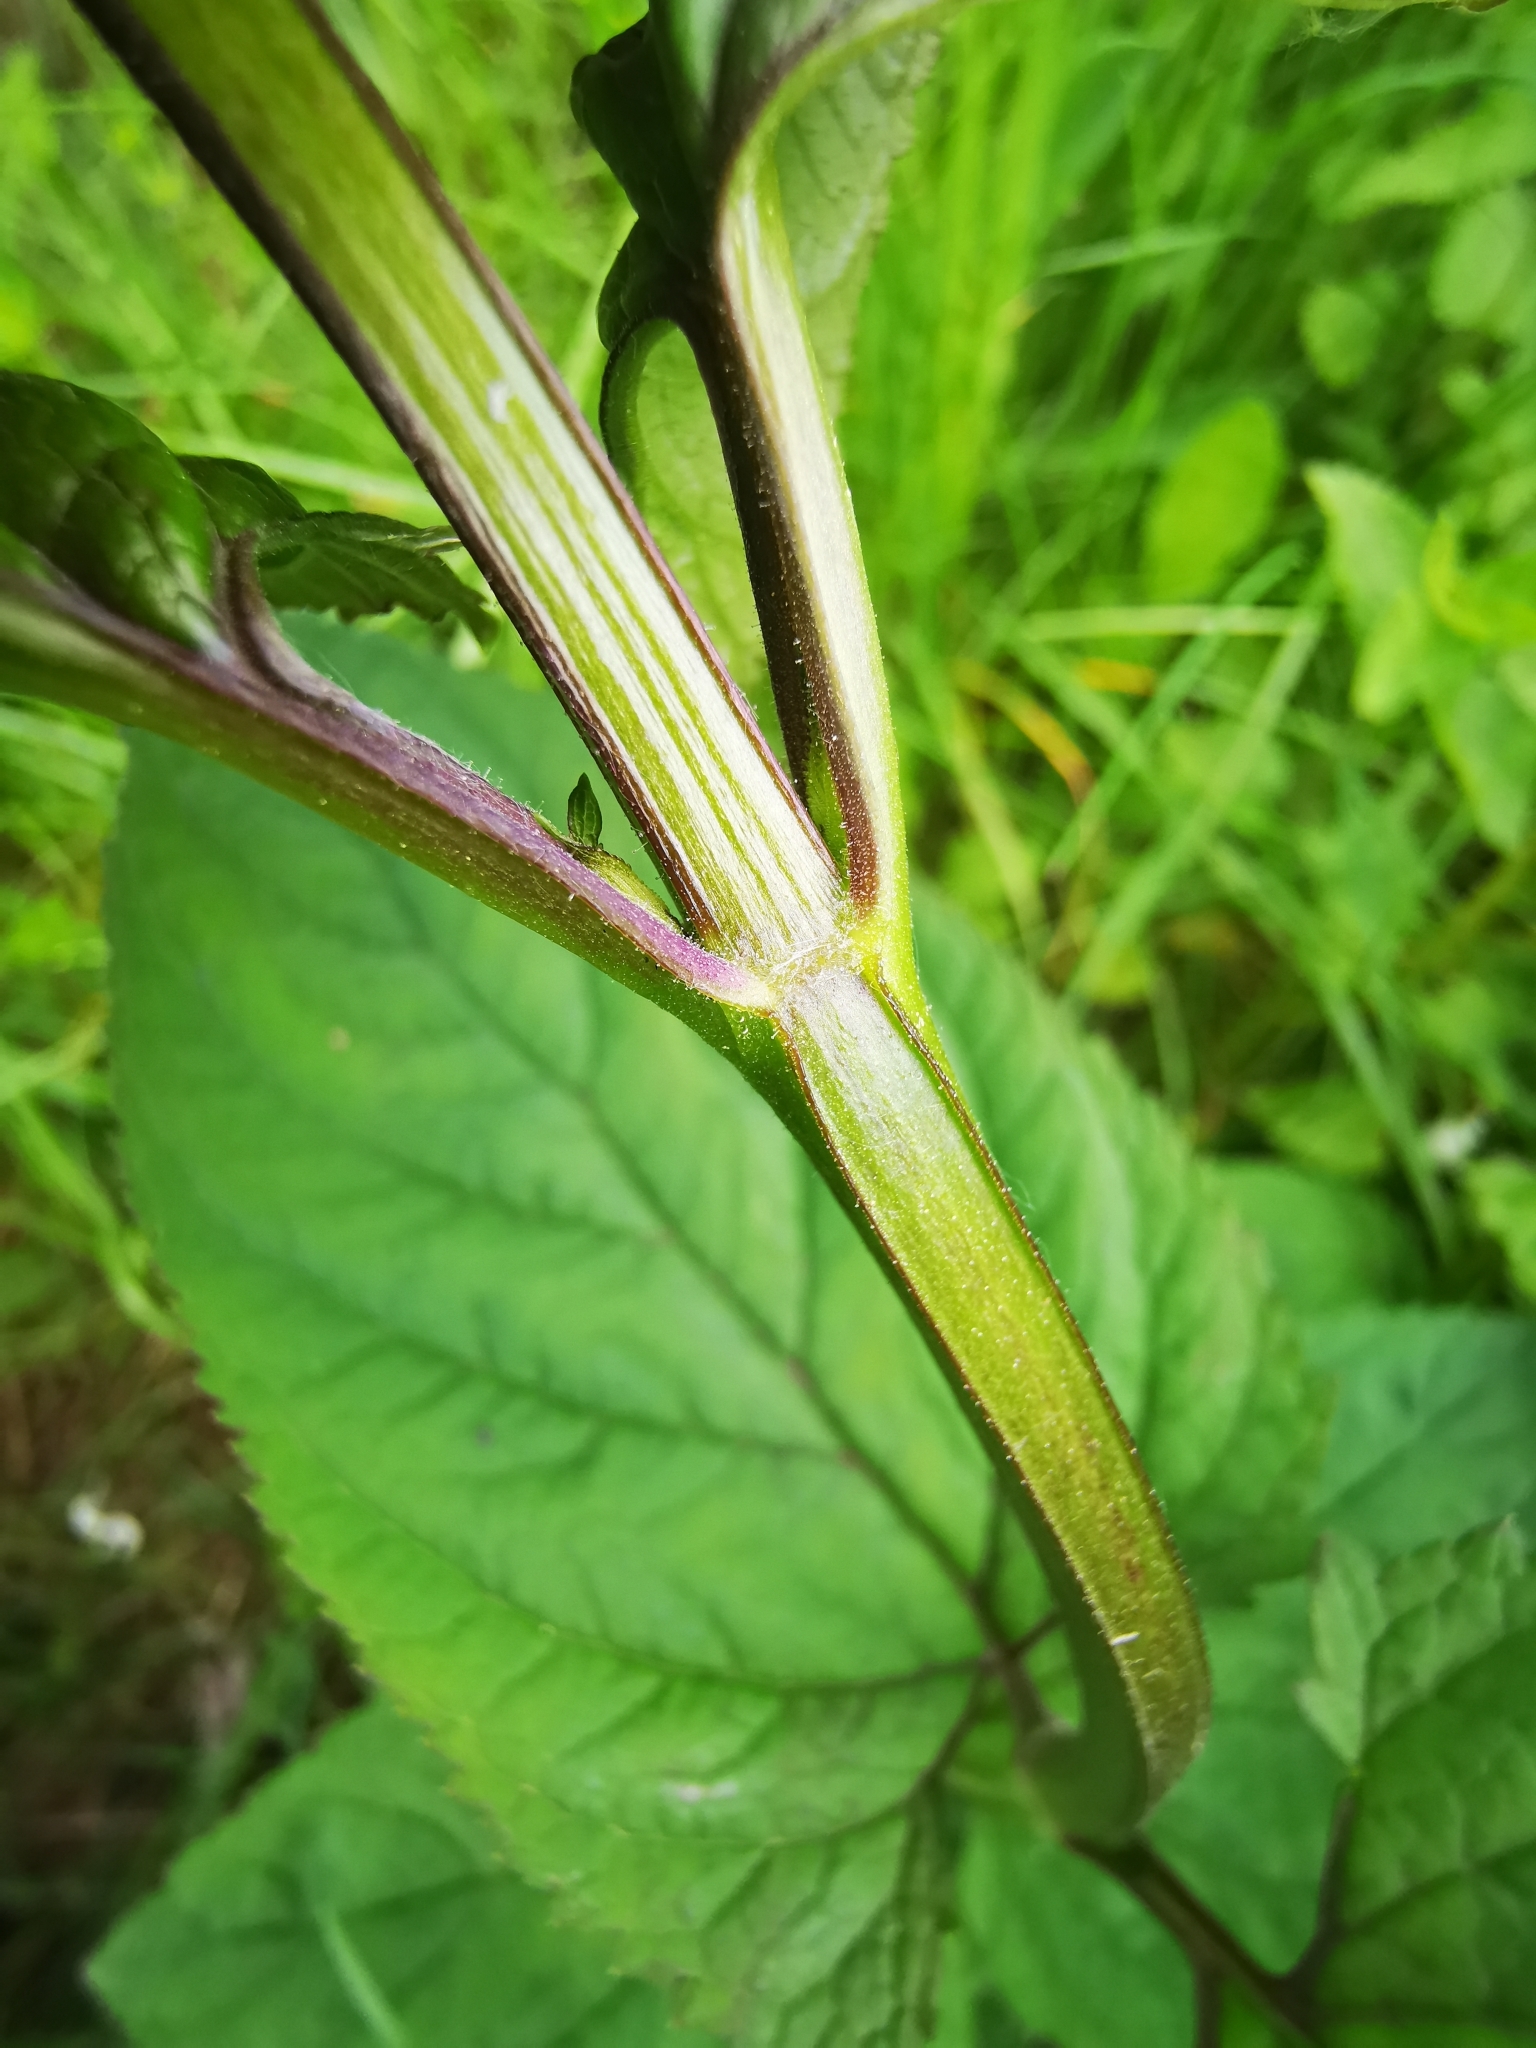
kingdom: Plantae
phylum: Tracheophyta
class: Magnoliopsida
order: Lamiales
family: Scrophulariaceae
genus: Scrophularia
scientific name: Scrophularia nodosa
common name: Common figwort
